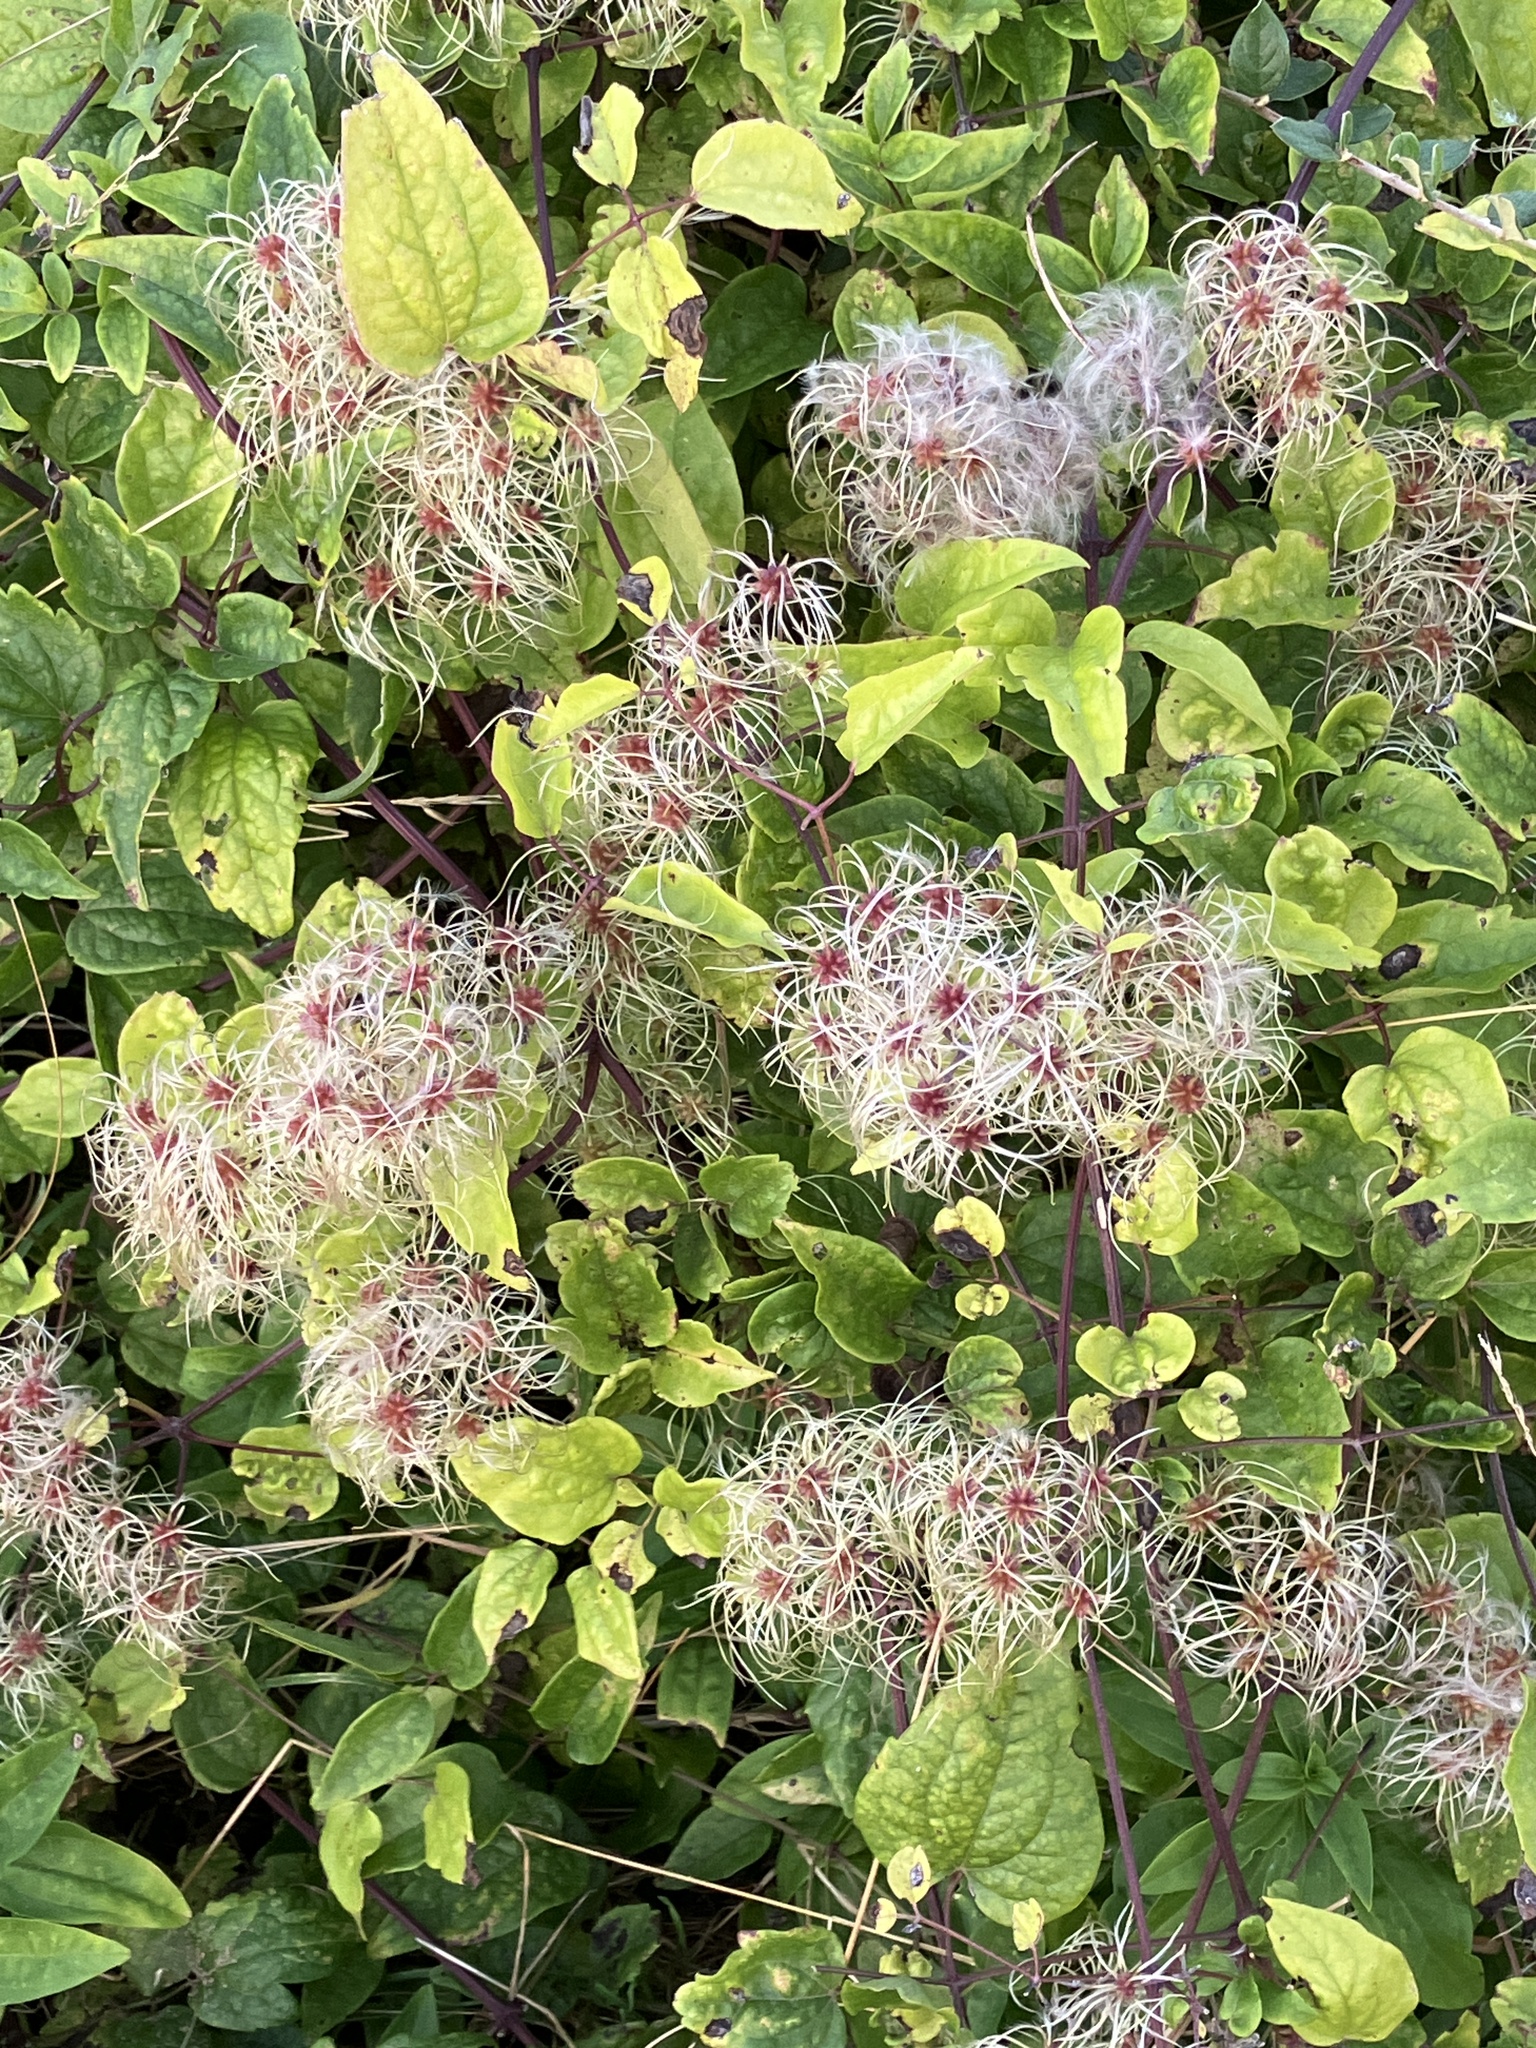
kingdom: Plantae
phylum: Tracheophyta
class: Magnoliopsida
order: Ranunculales
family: Ranunculaceae
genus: Clematis
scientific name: Clematis vitalba
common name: Evergreen clematis
